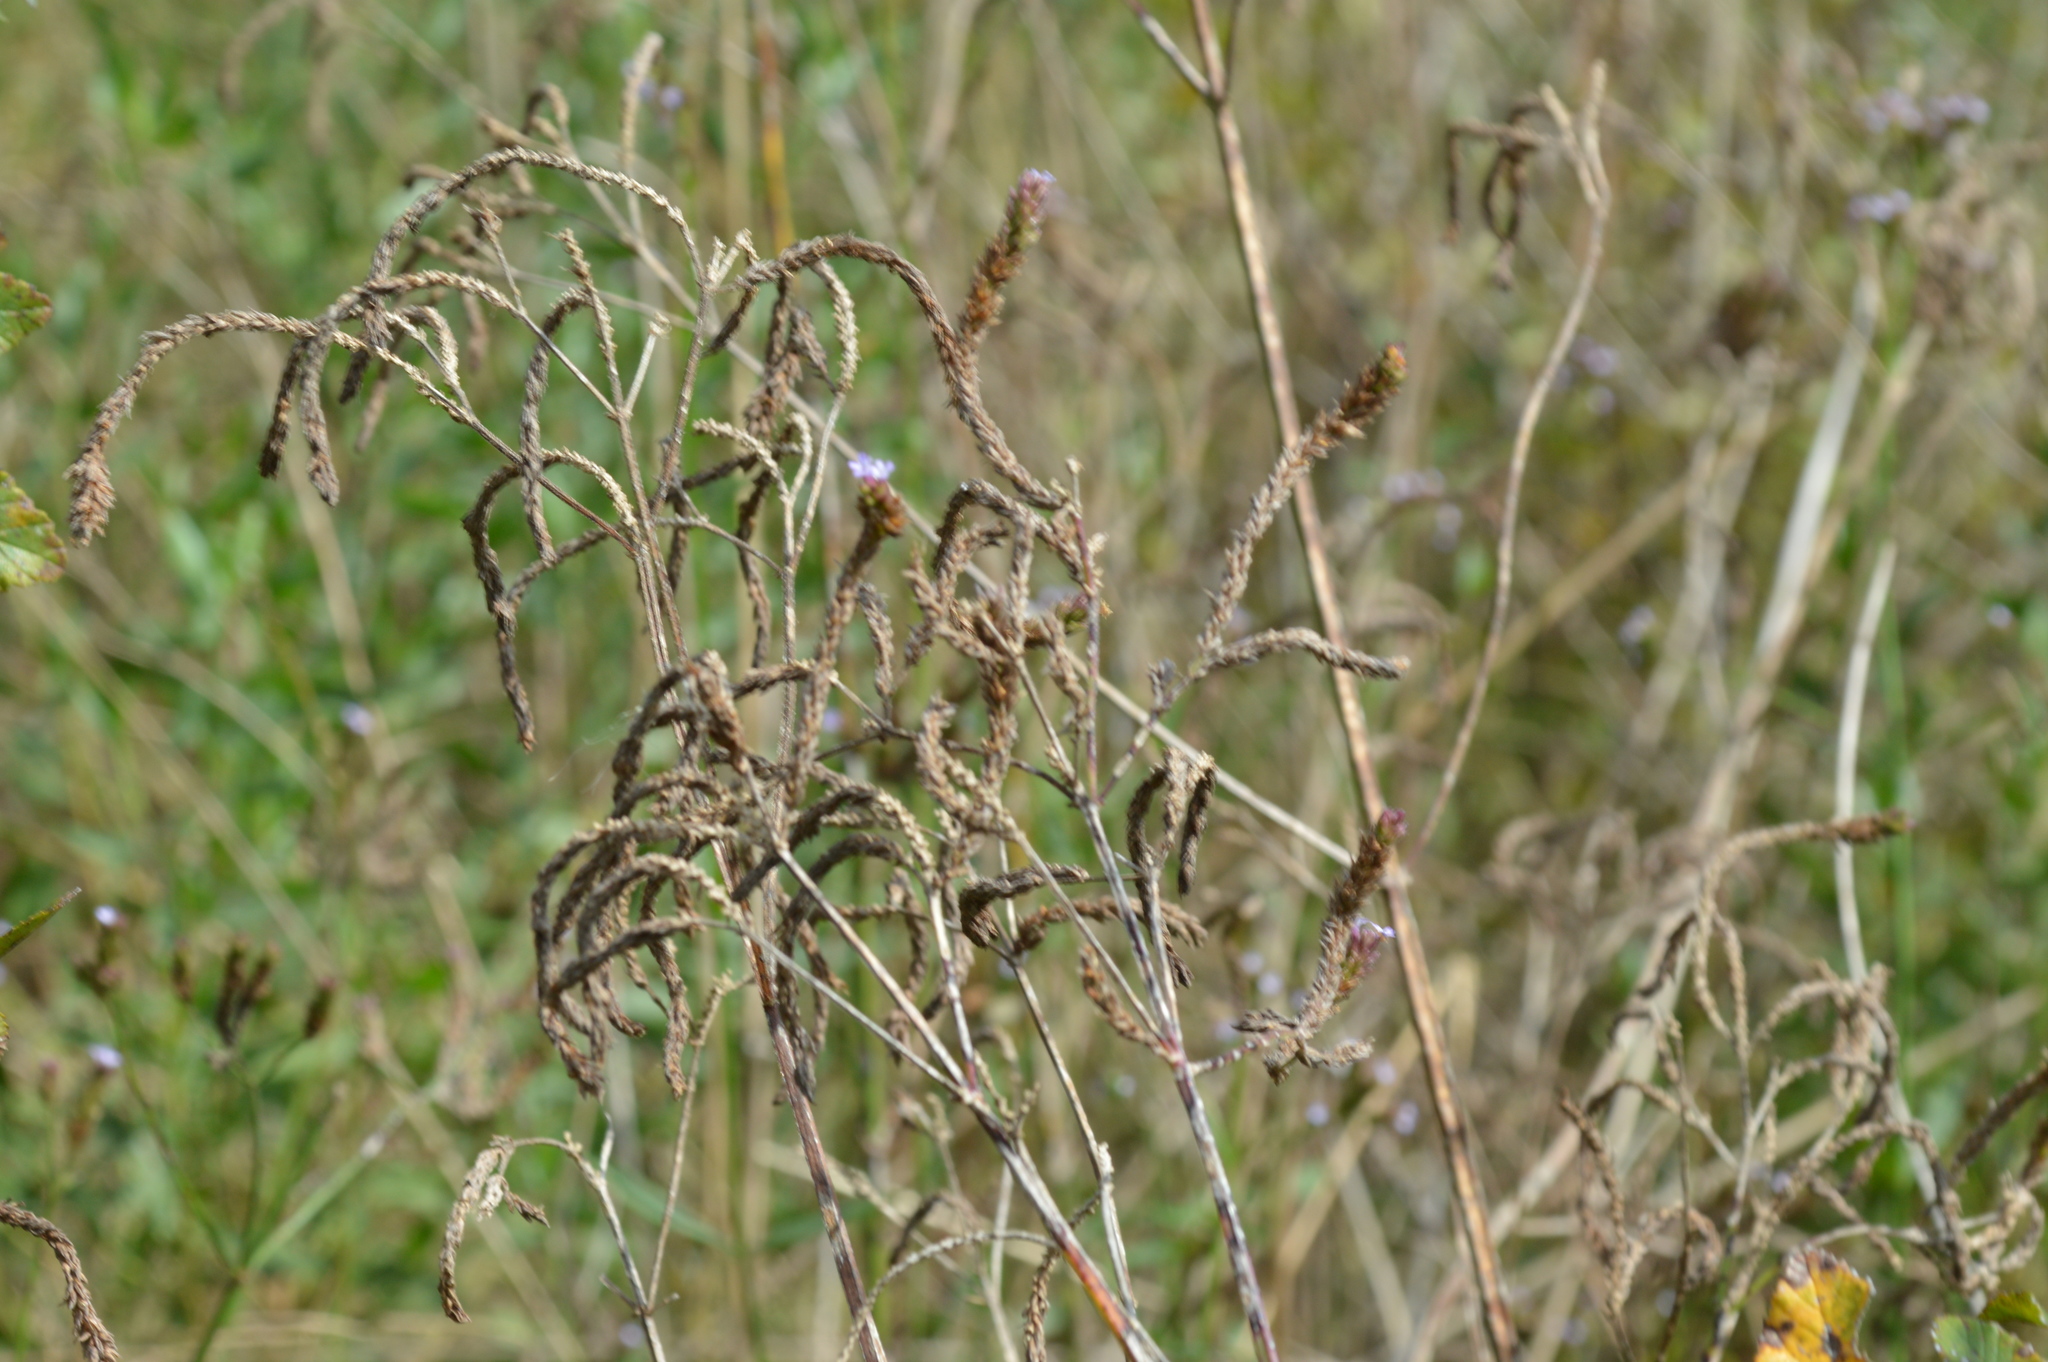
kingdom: Plantae
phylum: Tracheophyta
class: Magnoliopsida
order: Lamiales
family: Verbenaceae
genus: Verbena
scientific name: Verbena brasiliensis
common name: Brazilian vervain
